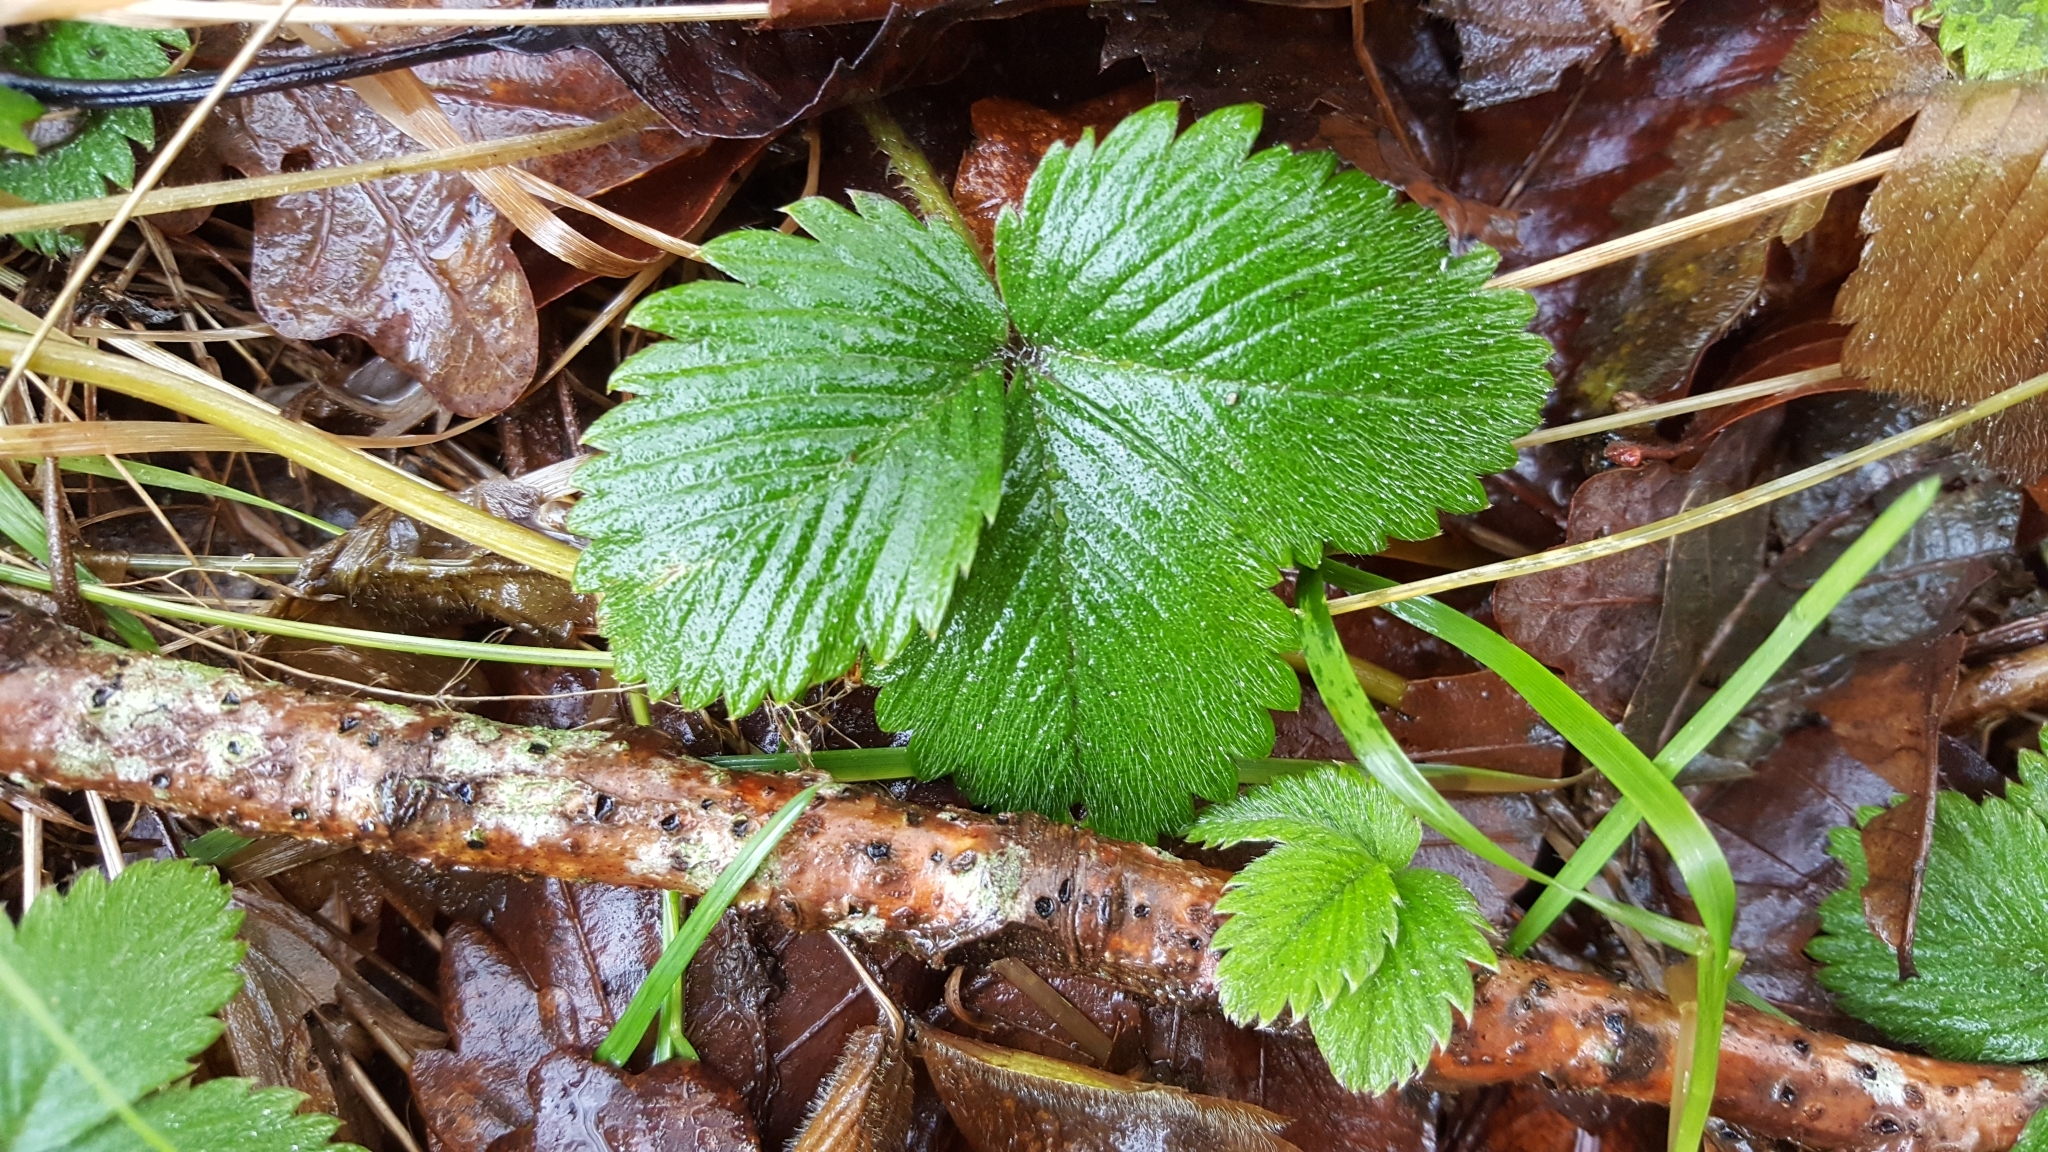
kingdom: Plantae
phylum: Tracheophyta
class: Magnoliopsida
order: Rosales
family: Rosaceae
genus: Fragaria
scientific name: Fragaria vesca
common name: Wild strawberry
